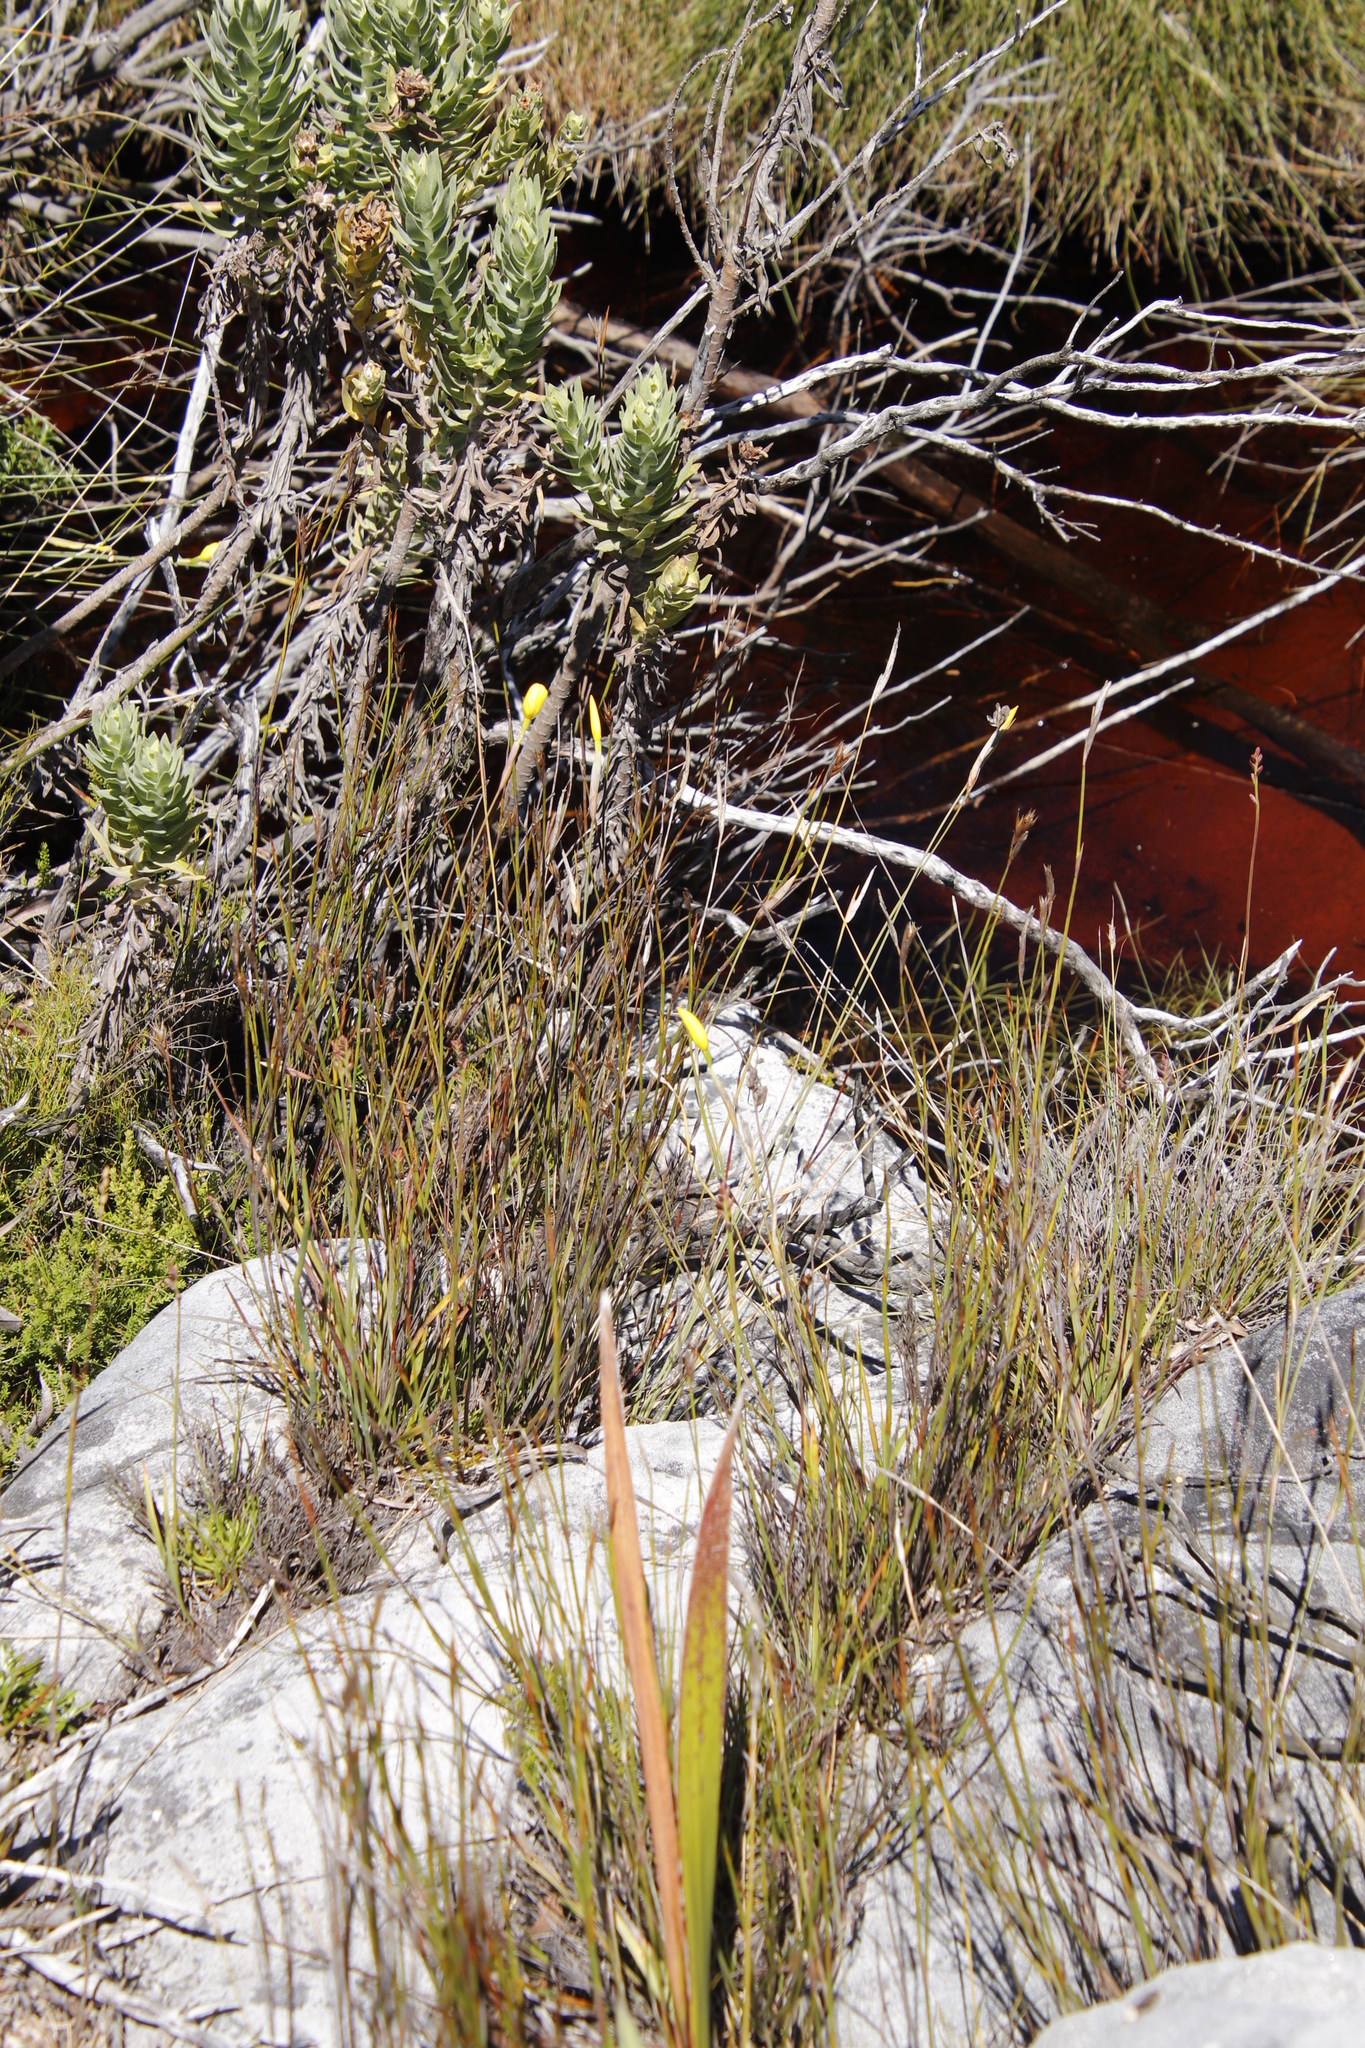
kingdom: Plantae
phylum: Tracheophyta
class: Liliopsida
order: Asparagales
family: Iridaceae
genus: Bobartia
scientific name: Bobartia filiformis
